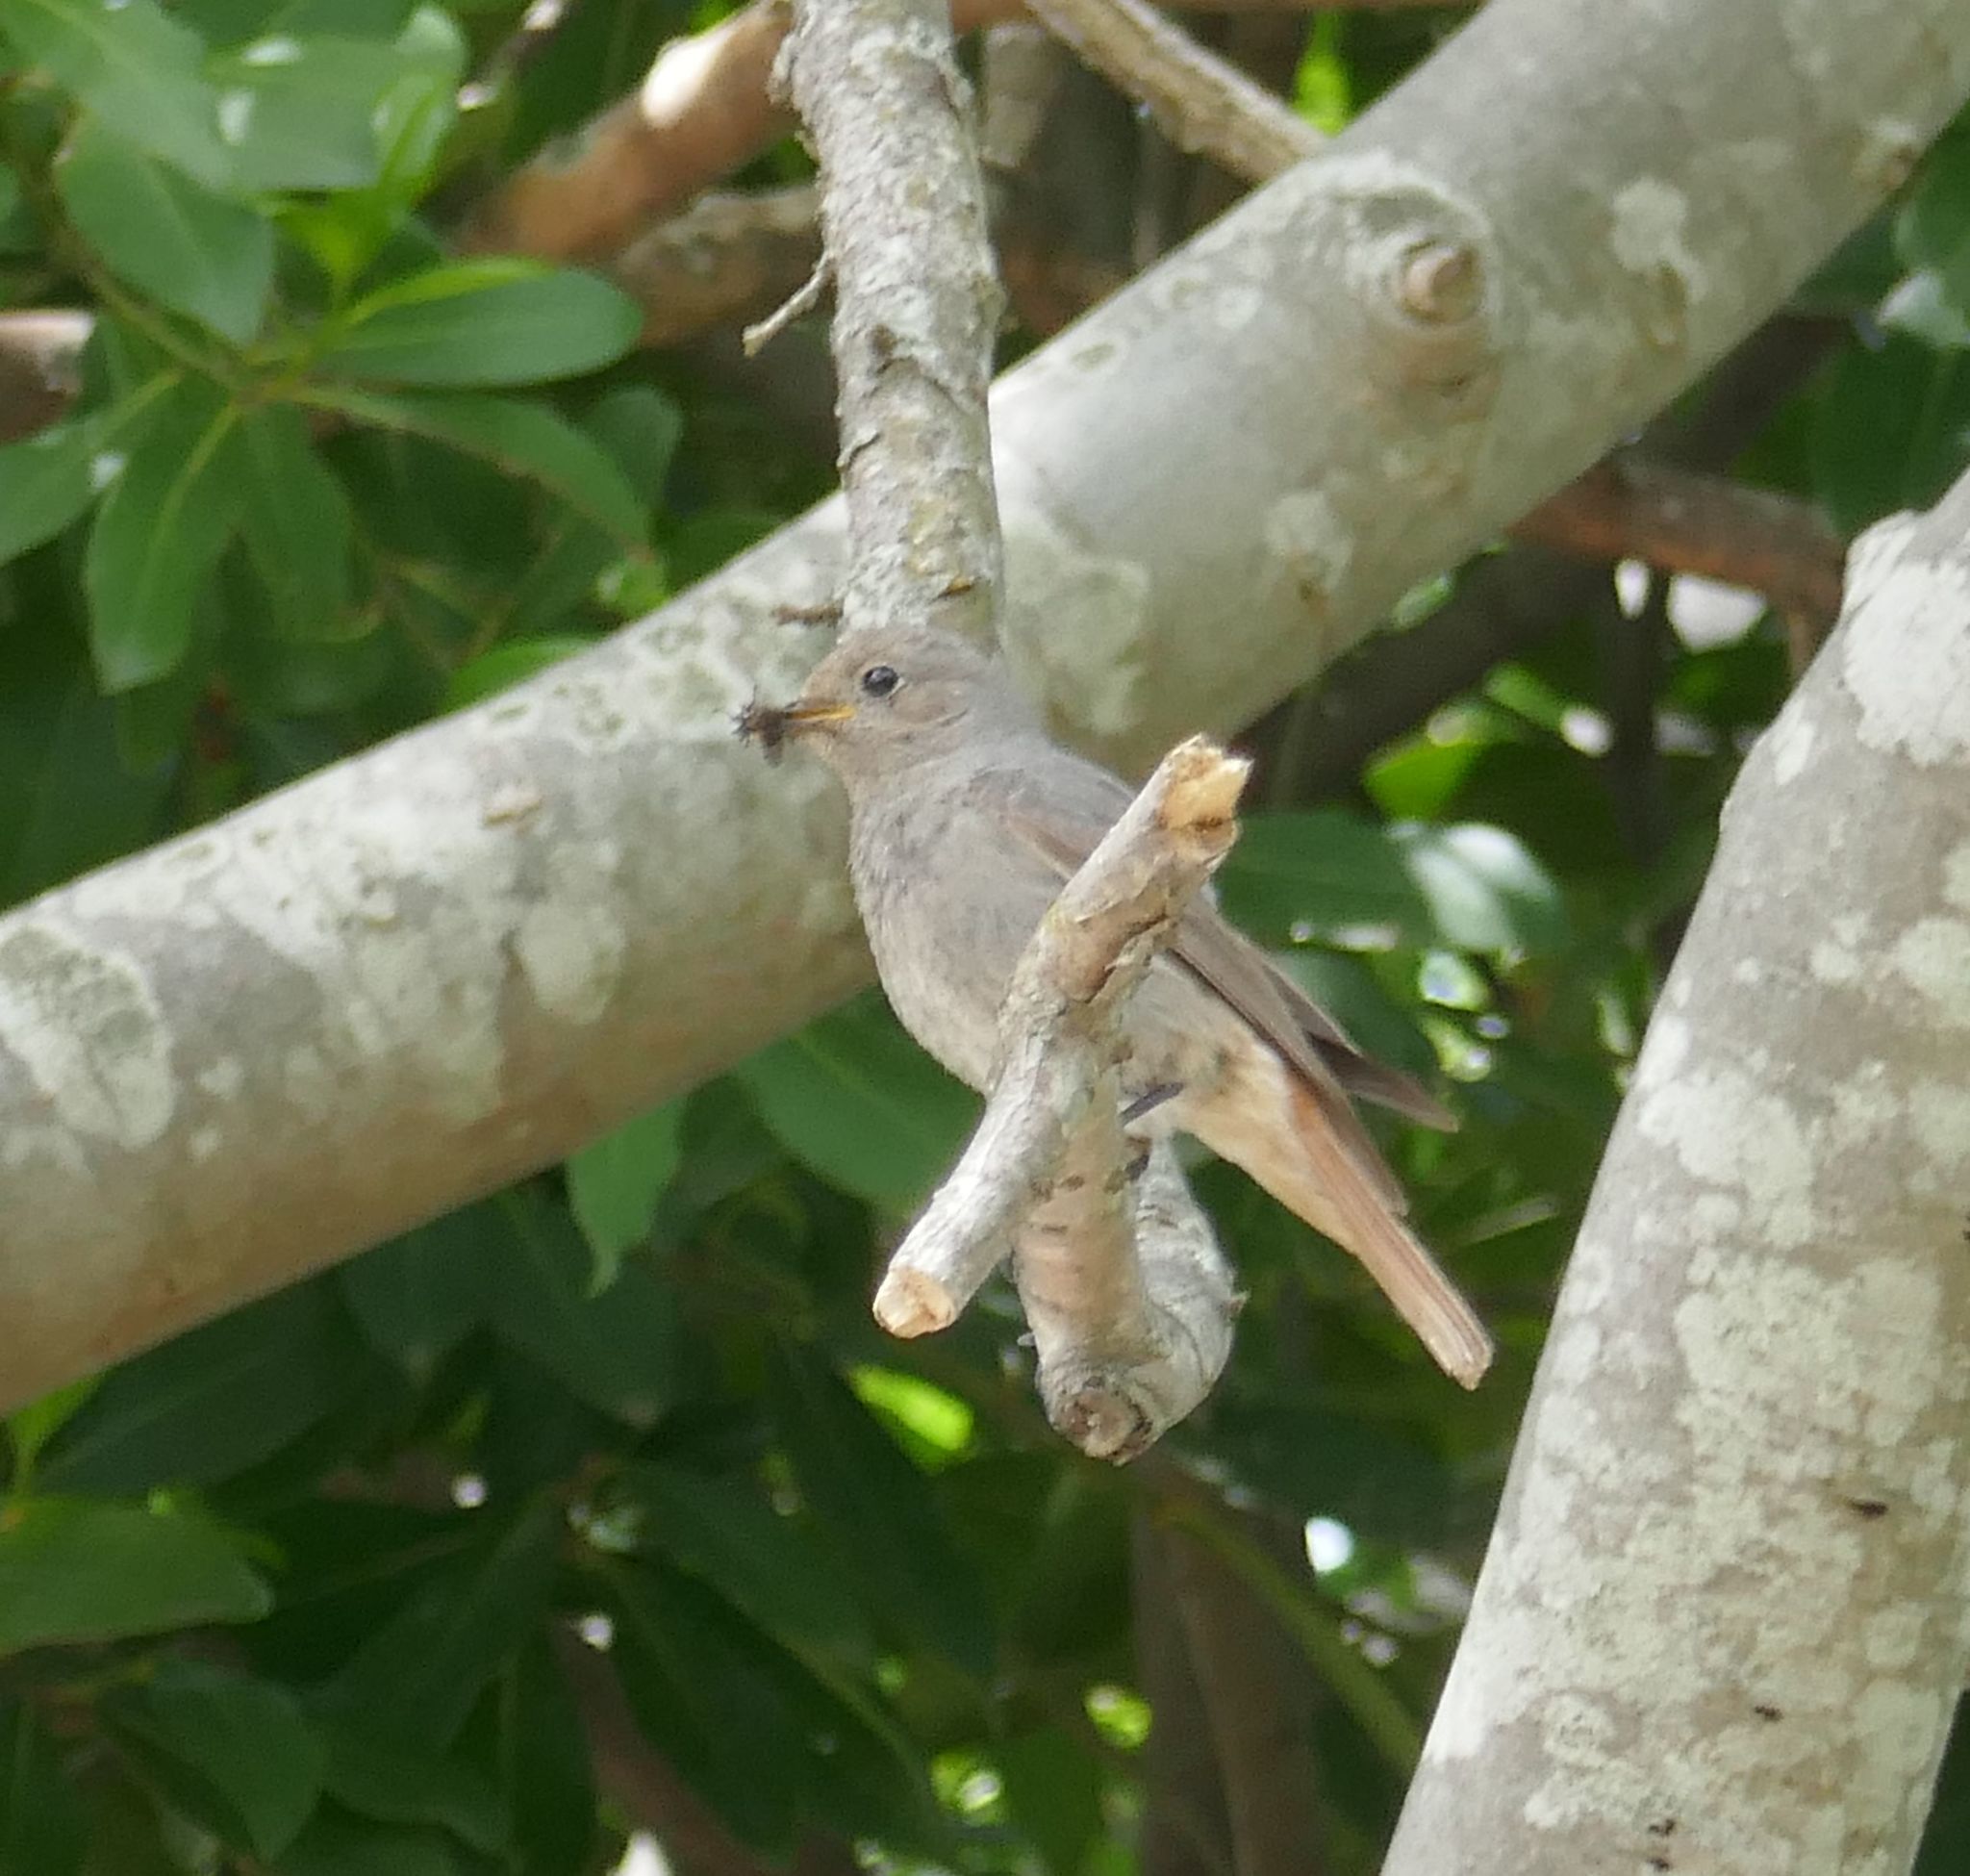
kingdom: Animalia
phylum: Chordata
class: Aves
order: Passeriformes
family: Muscicapidae
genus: Phoenicurus
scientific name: Phoenicurus ochruros
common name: Black redstart
